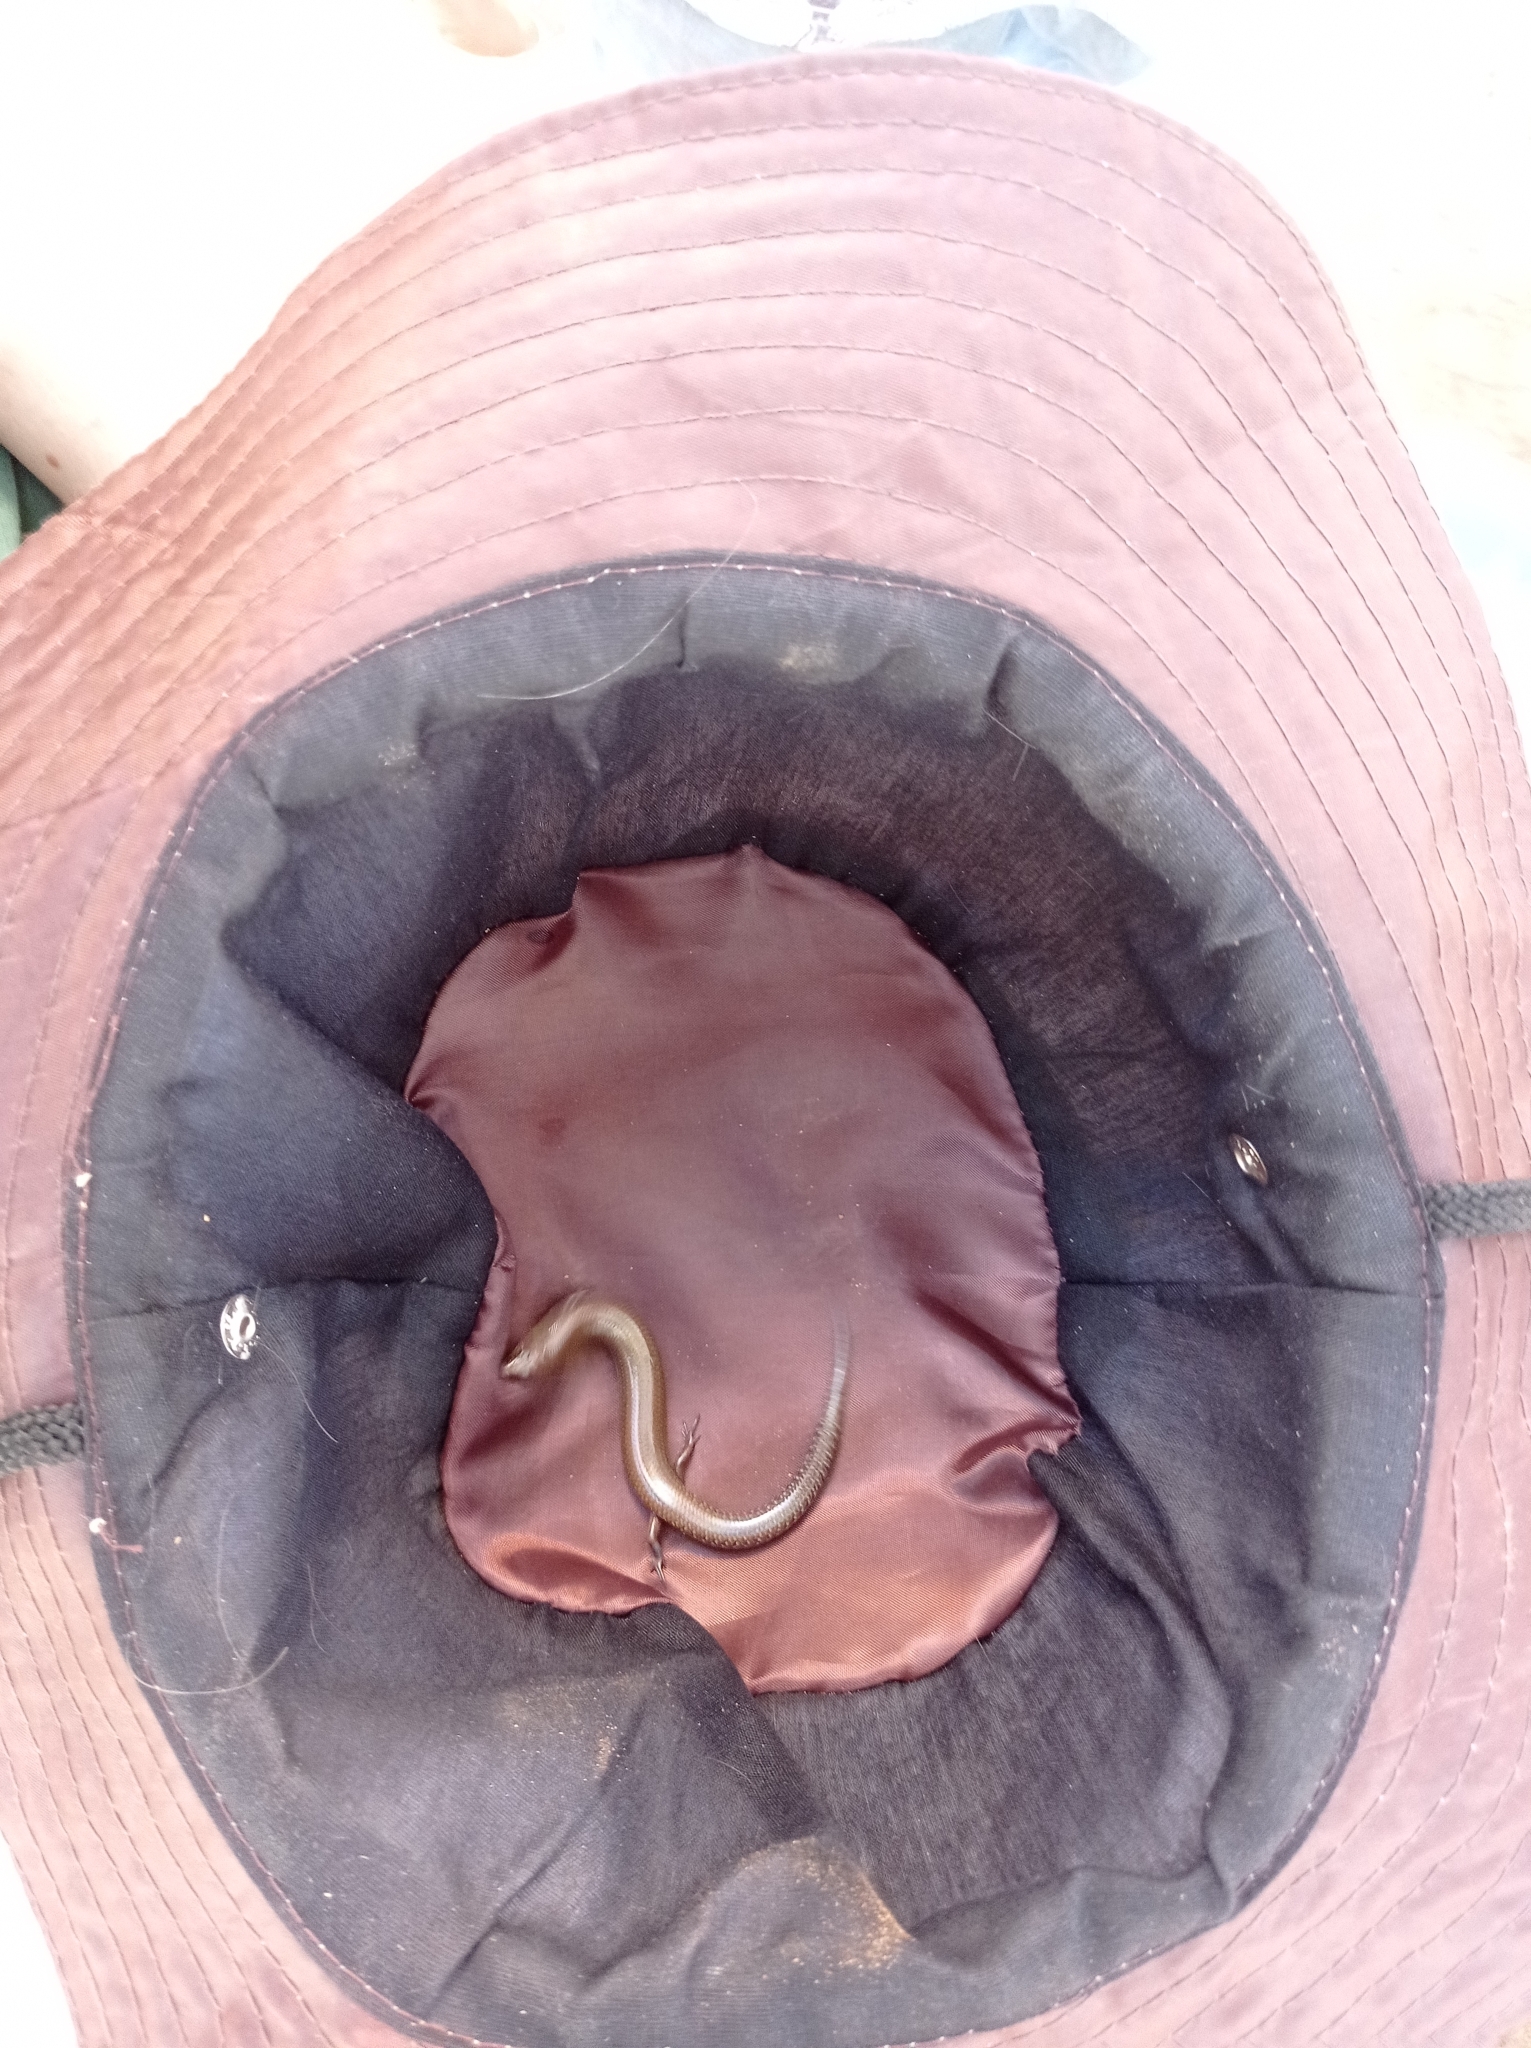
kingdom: Animalia
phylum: Chordata
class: Squamata
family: Scincidae
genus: Mochlus
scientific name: Mochlus sundevallii
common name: Peters' eyelid skink
